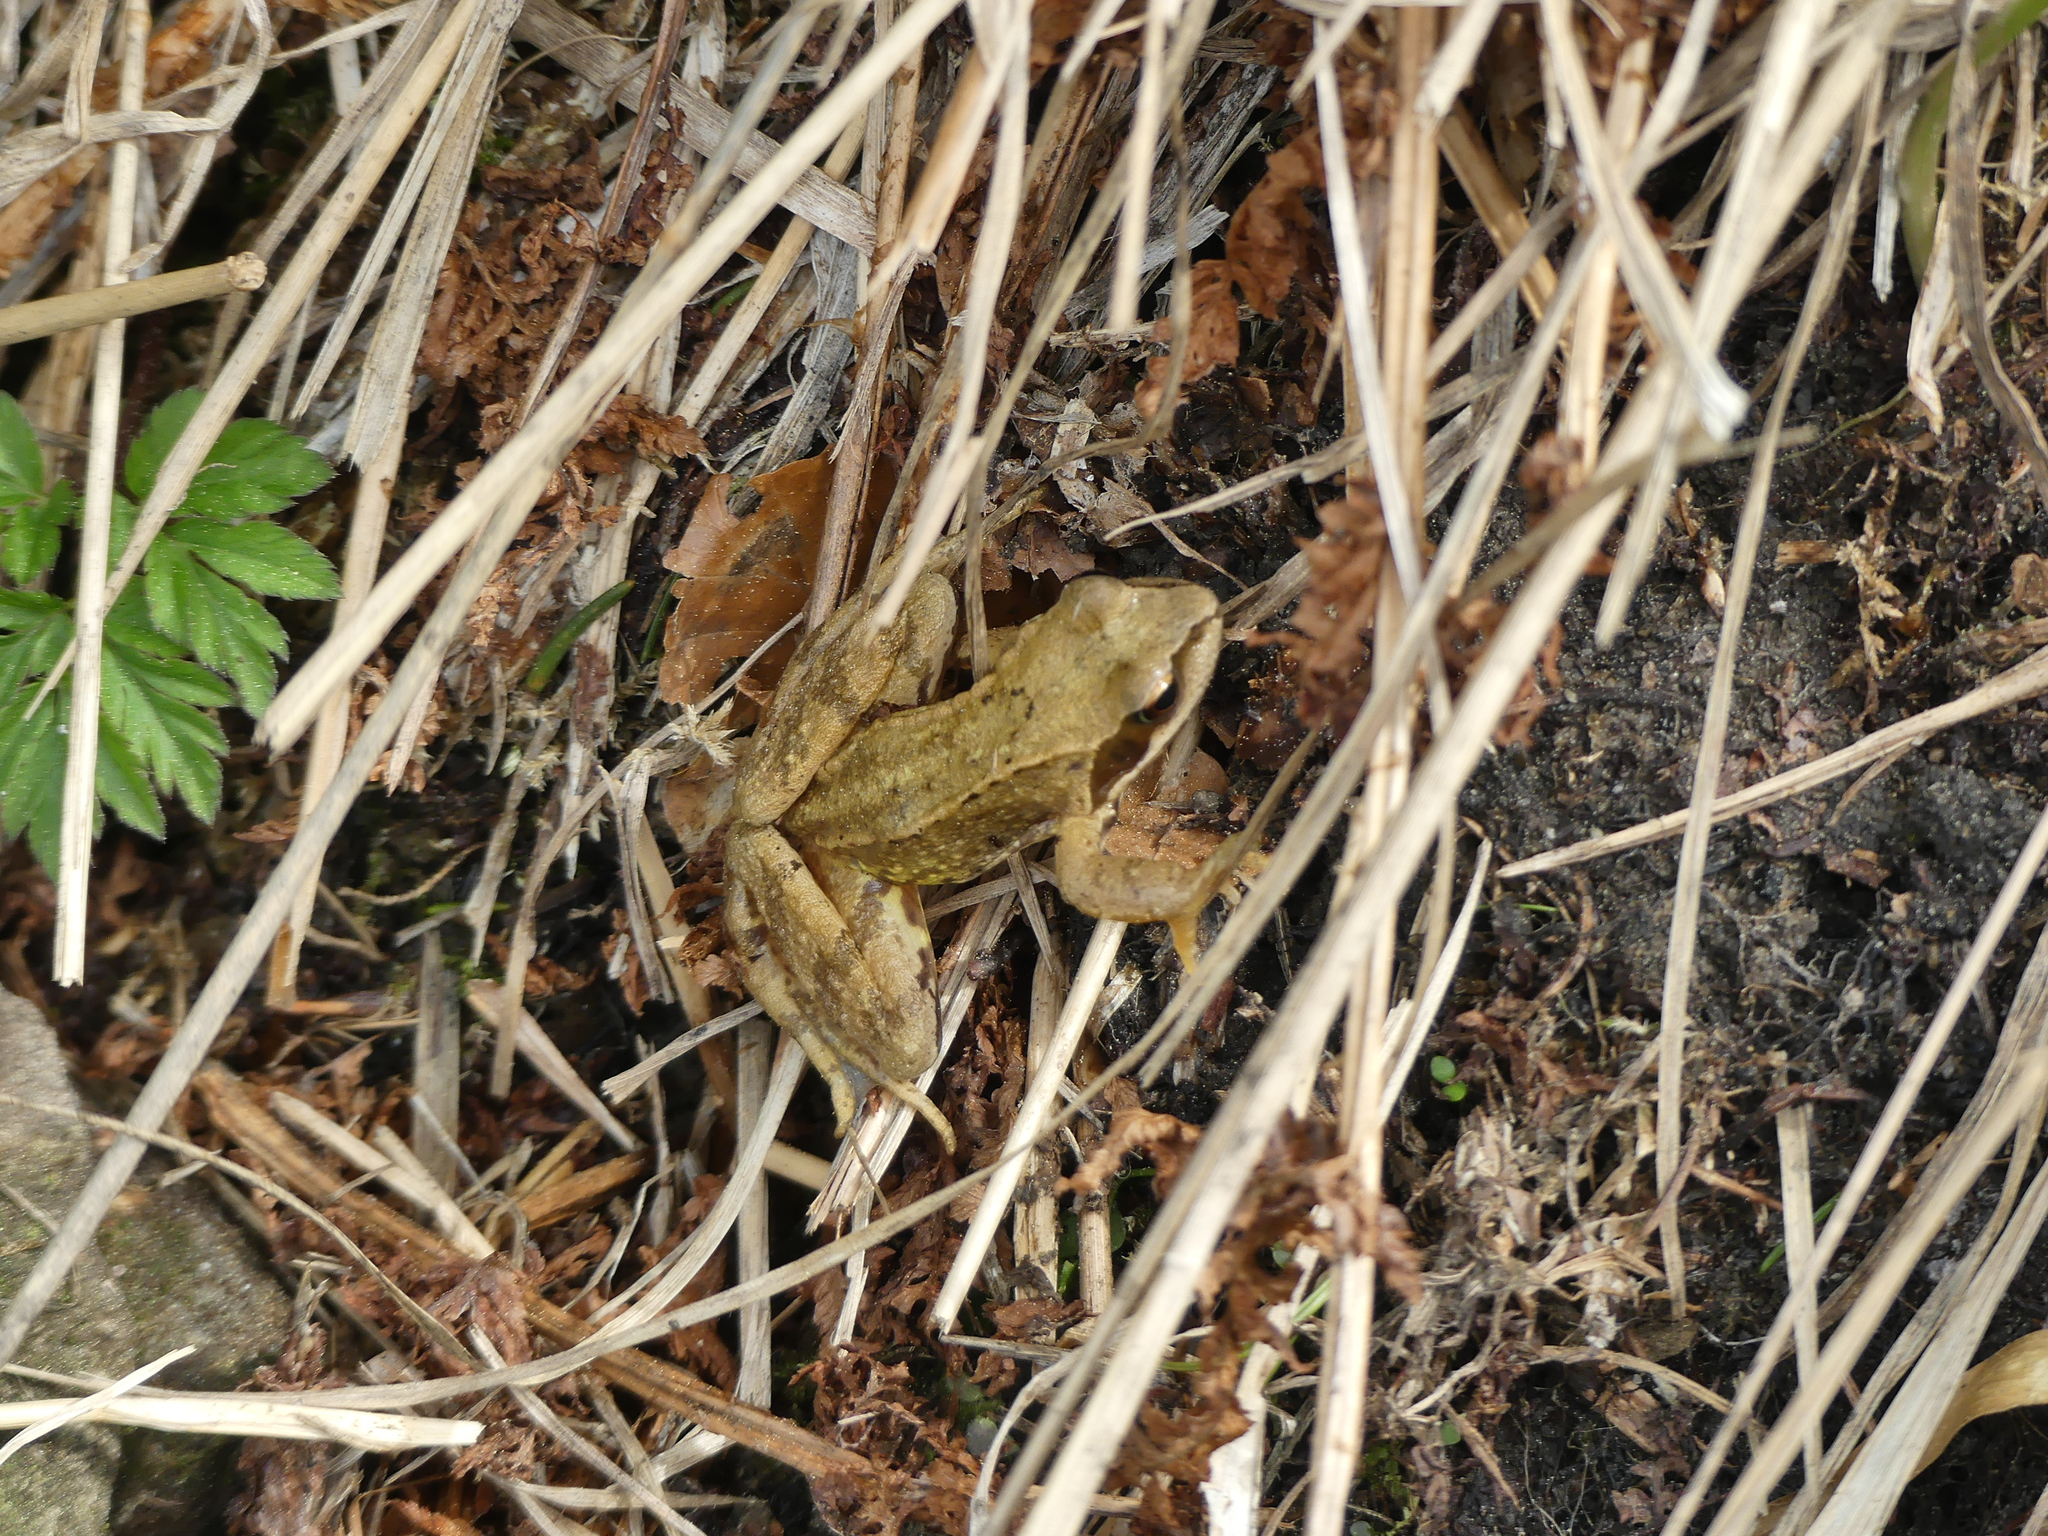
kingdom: Animalia
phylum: Chordata
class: Amphibia
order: Anura
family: Ranidae
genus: Rana
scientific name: Rana temporaria
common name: Common frog
